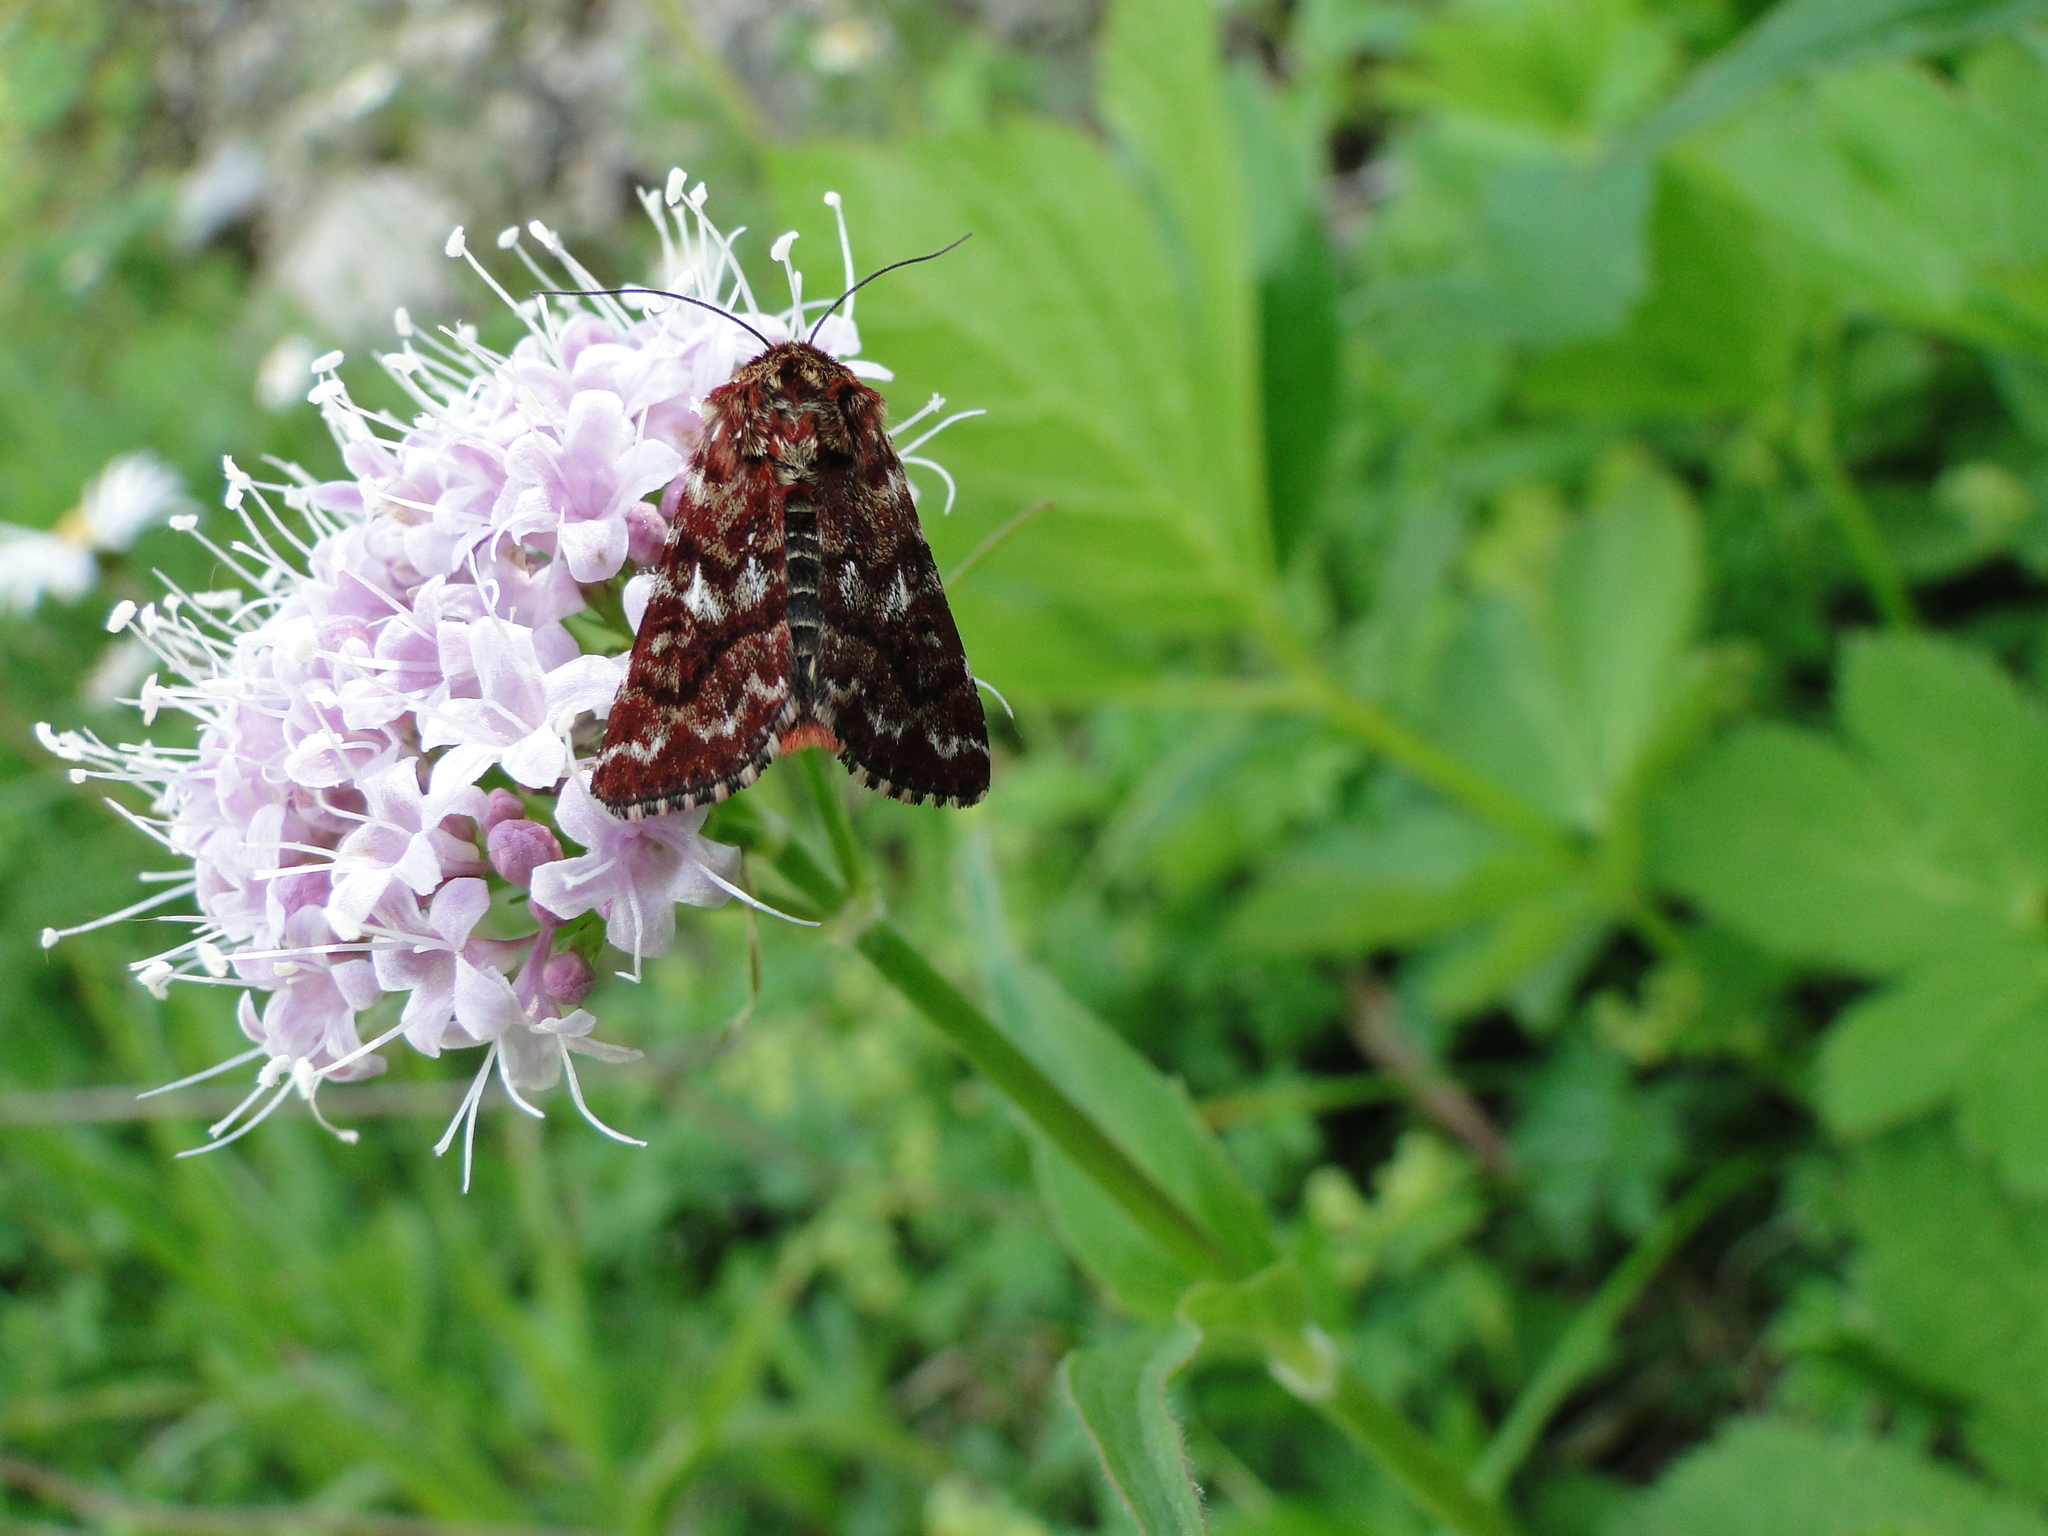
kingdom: Animalia
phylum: Arthropoda
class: Insecta
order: Lepidoptera
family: Noctuidae
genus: Anarta
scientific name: Anarta myrtilli
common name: Beautiful yellow underwing
